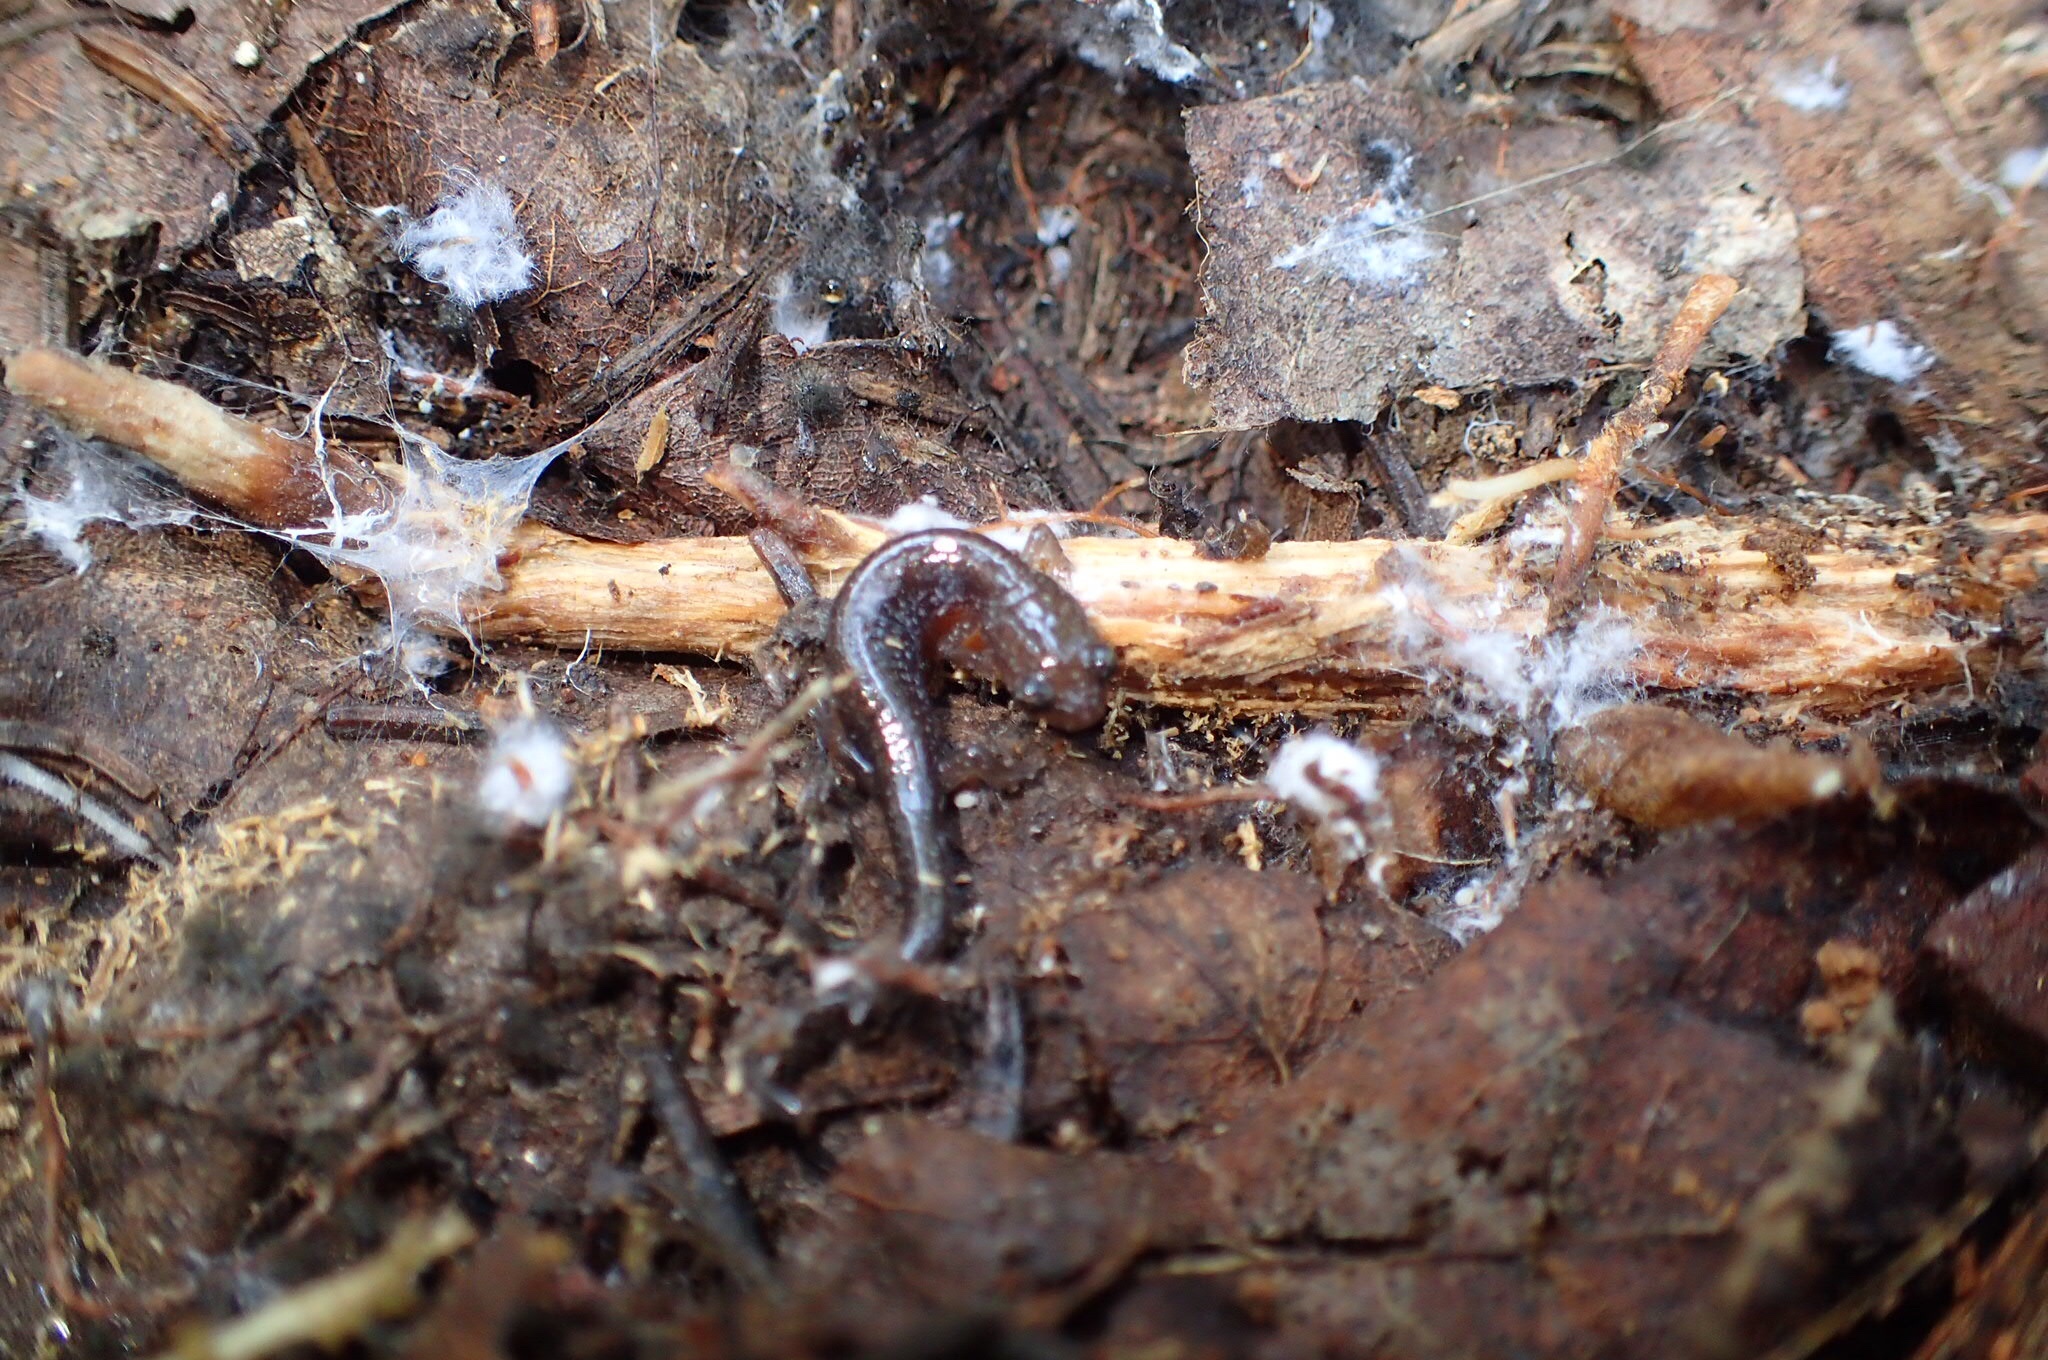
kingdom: Animalia
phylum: Chordata
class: Amphibia
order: Caudata
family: Plethodontidae
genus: Plethodon
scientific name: Plethodon cinereus
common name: Redback salamander
